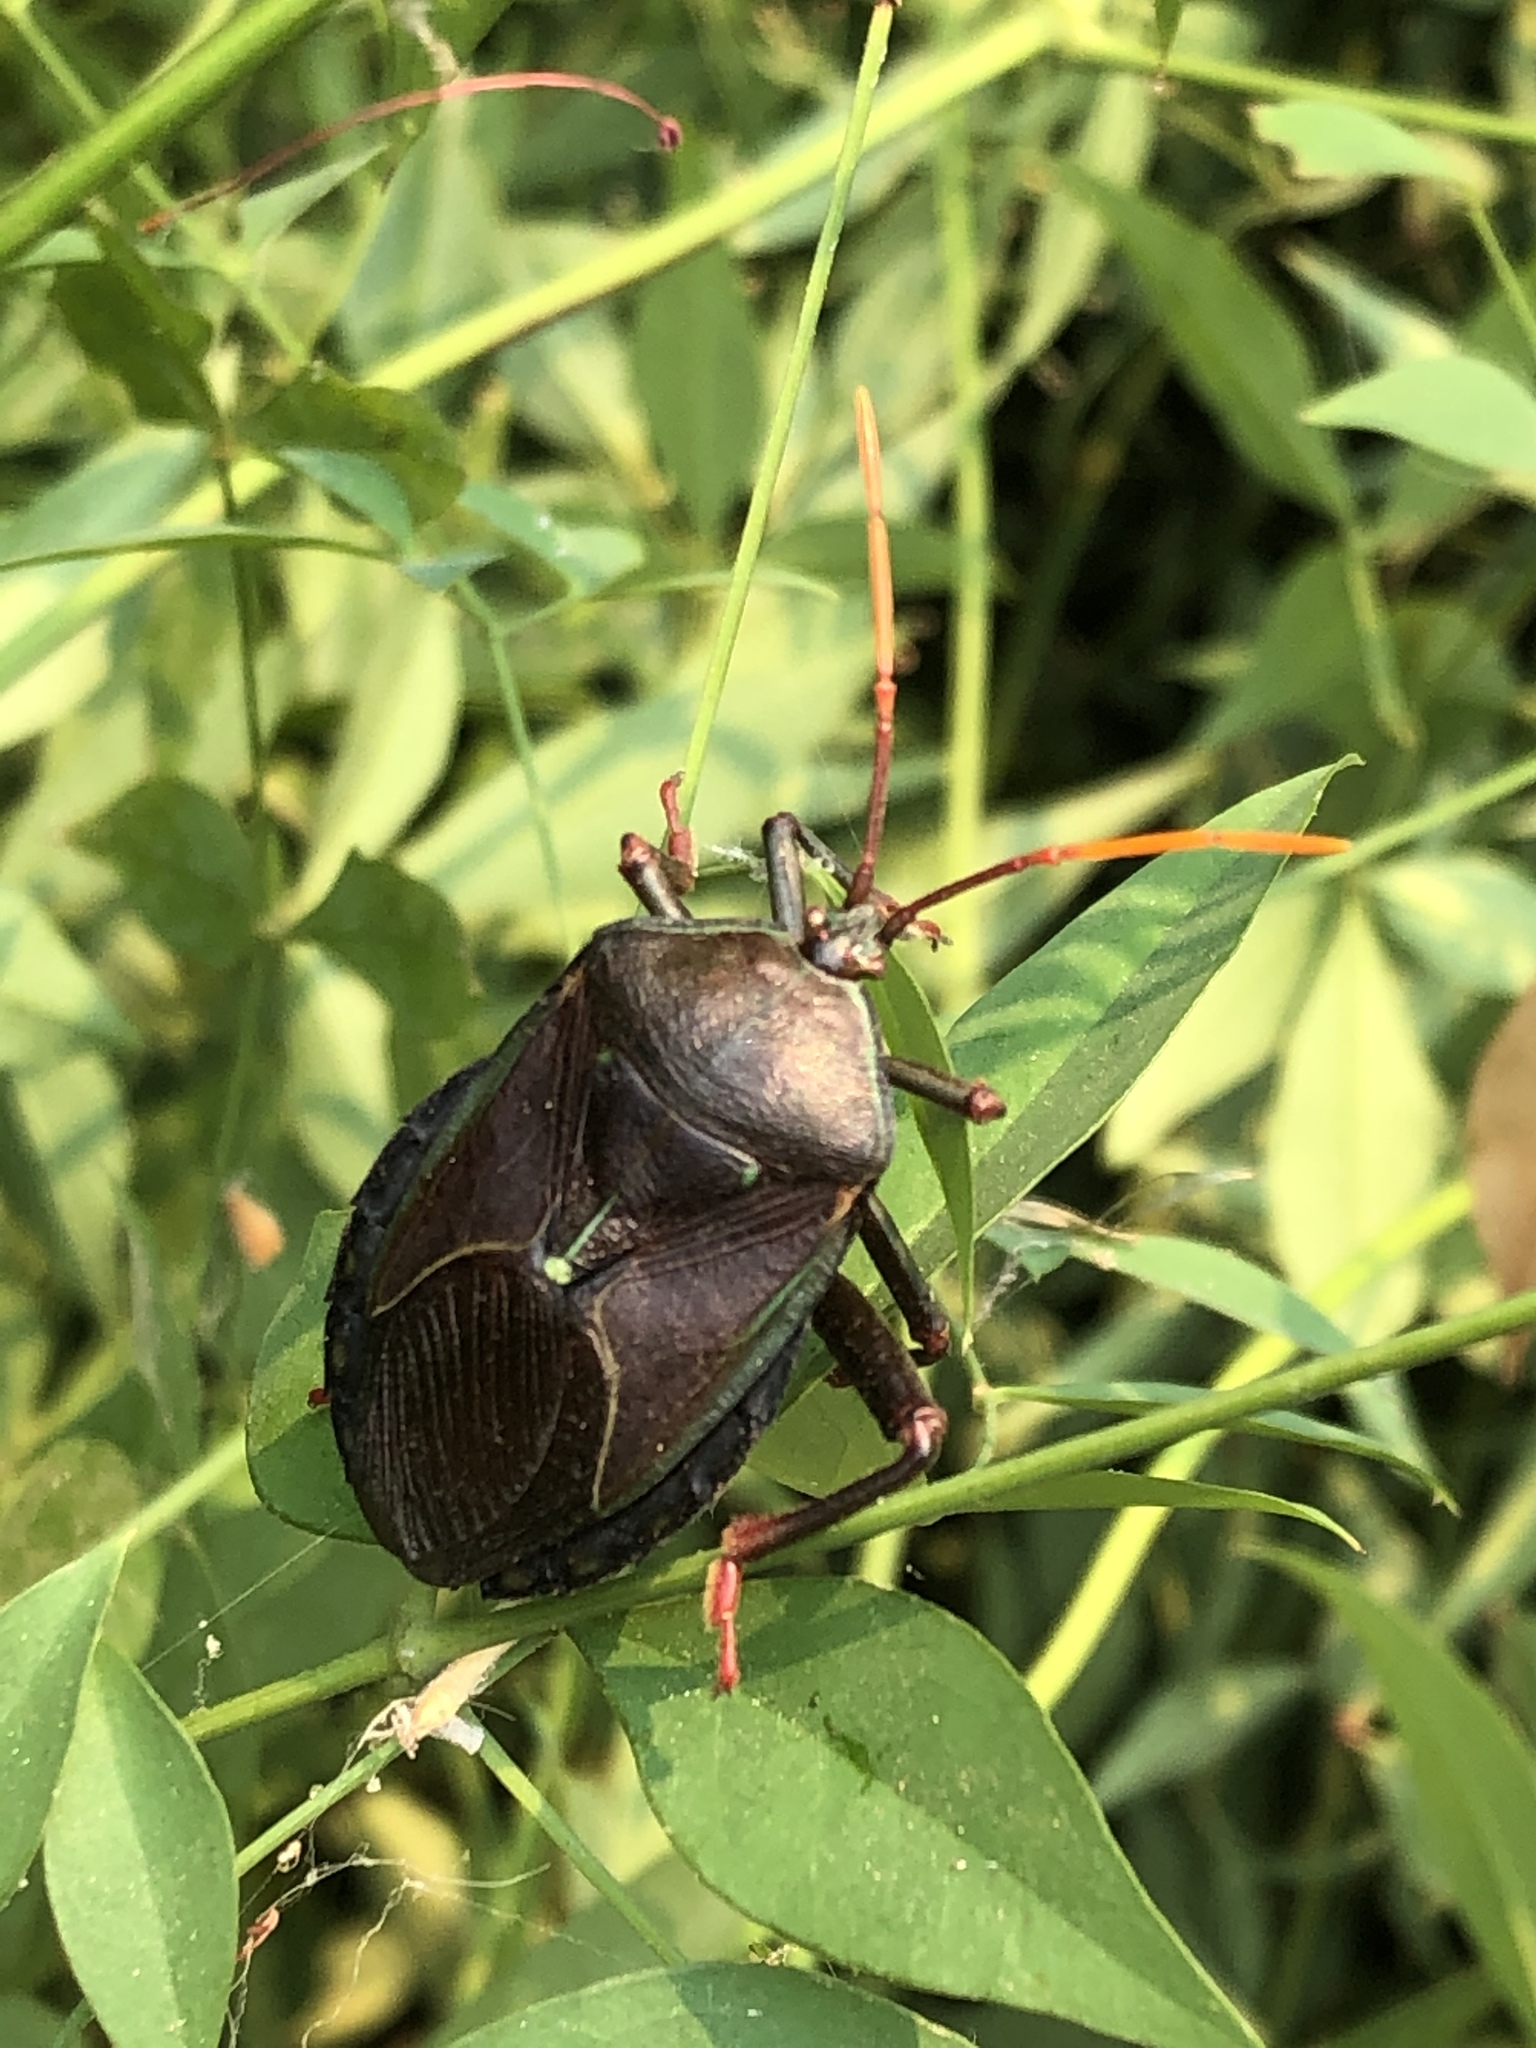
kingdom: Animalia
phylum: Arthropoda
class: Insecta
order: Hemiptera
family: Tessaratomidae
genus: Musgraveia
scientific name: Musgraveia sulciventris
